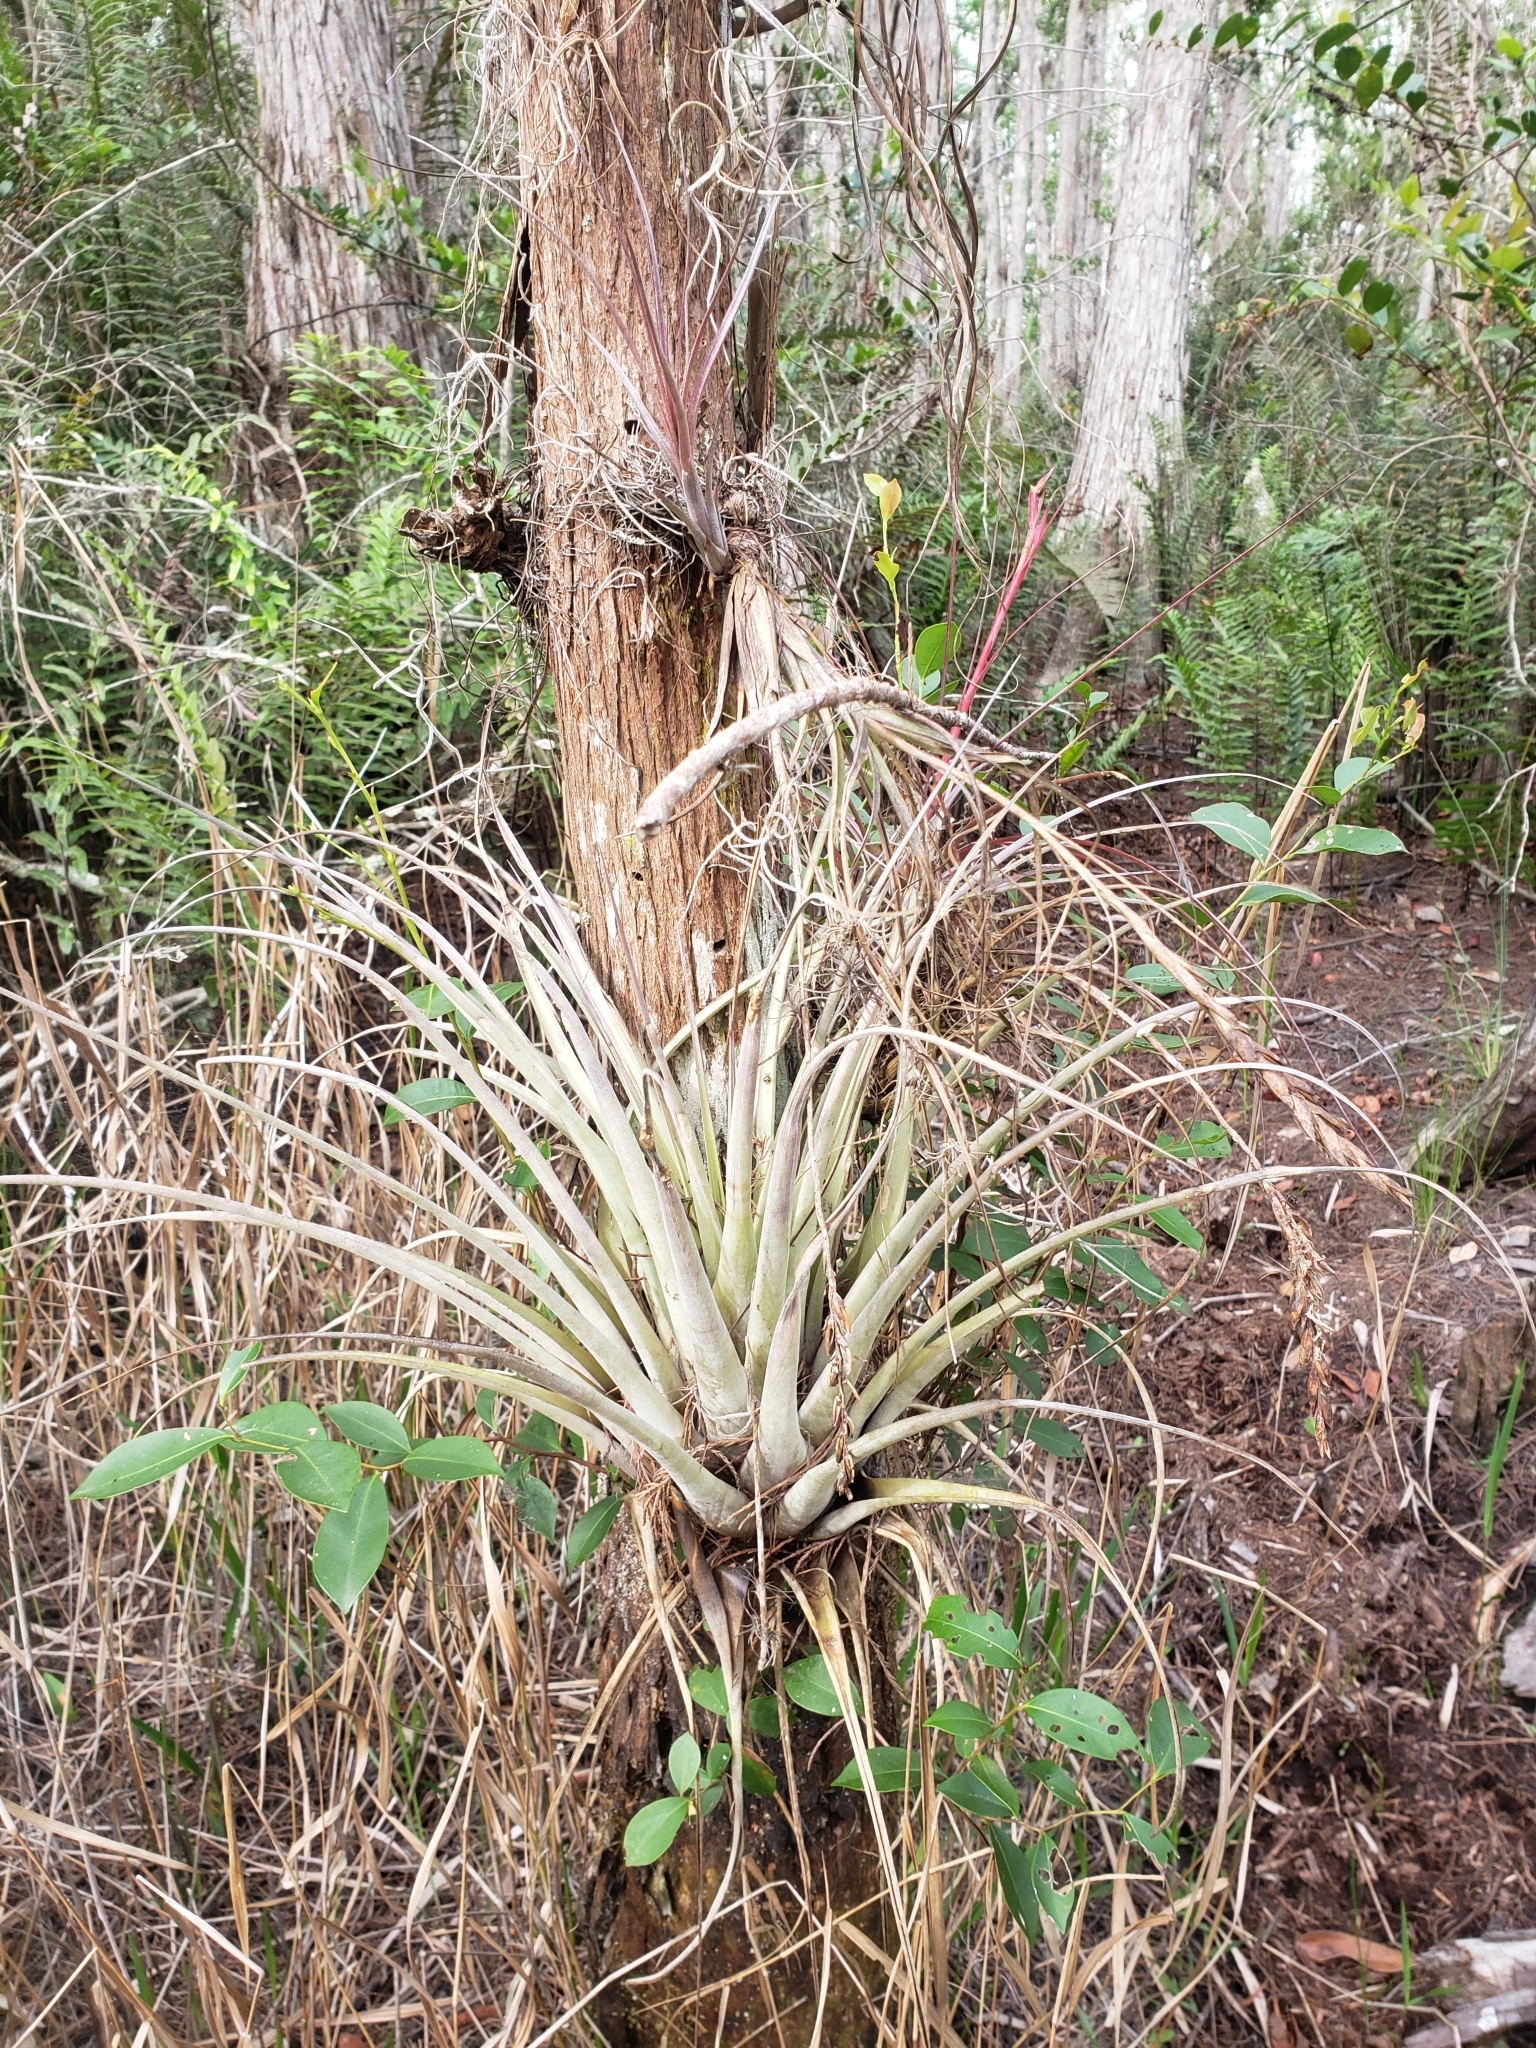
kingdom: Plantae
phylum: Tracheophyta
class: Liliopsida
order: Poales
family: Bromeliaceae
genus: Tillandsia
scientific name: Tillandsia fasciculata
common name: Giant airplant
